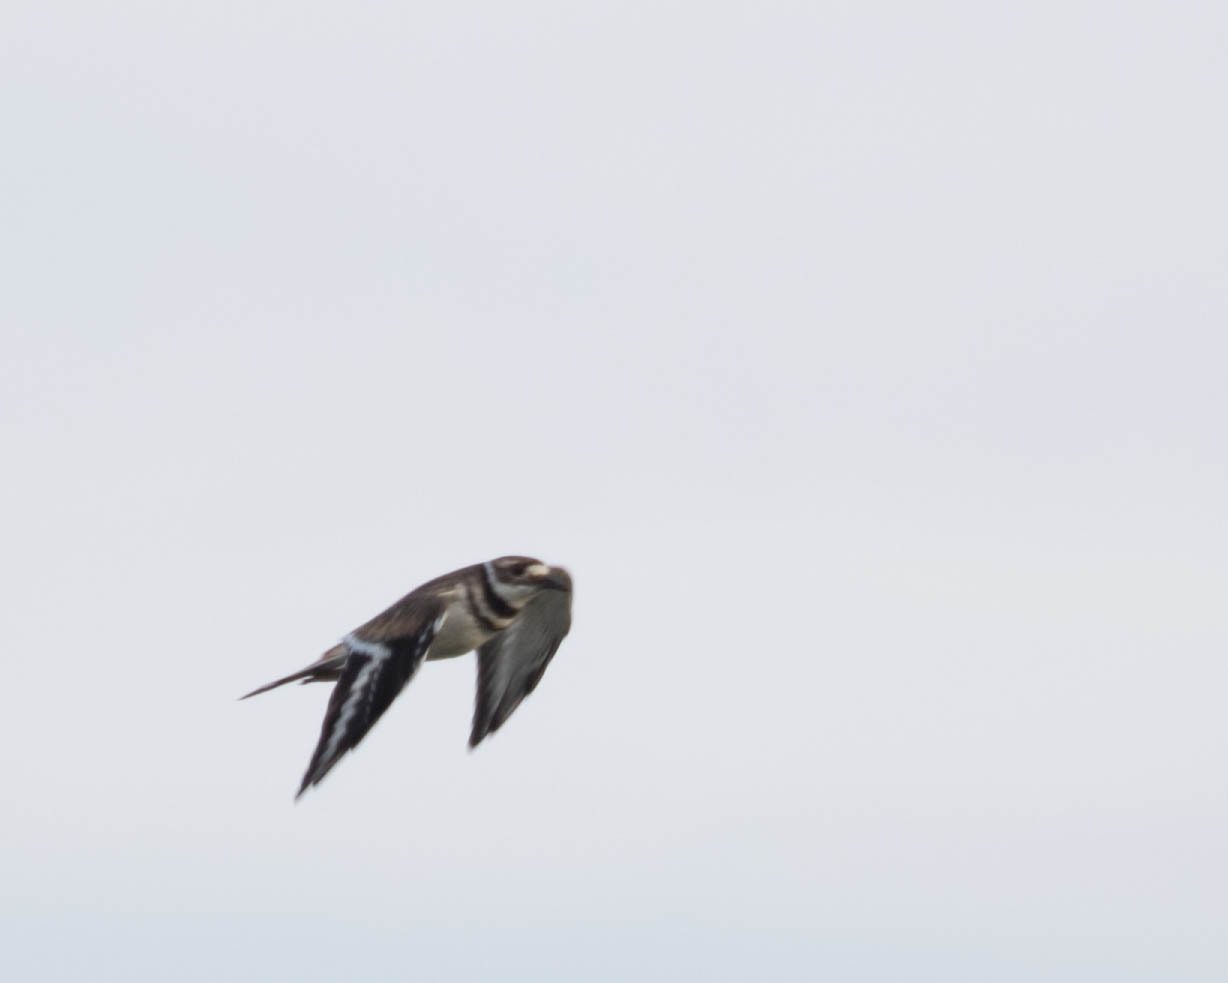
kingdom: Animalia
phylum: Chordata
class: Aves
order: Charadriiformes
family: Charadriidae
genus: Charadrius
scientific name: Charadrius vociferus
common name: Killdeer
